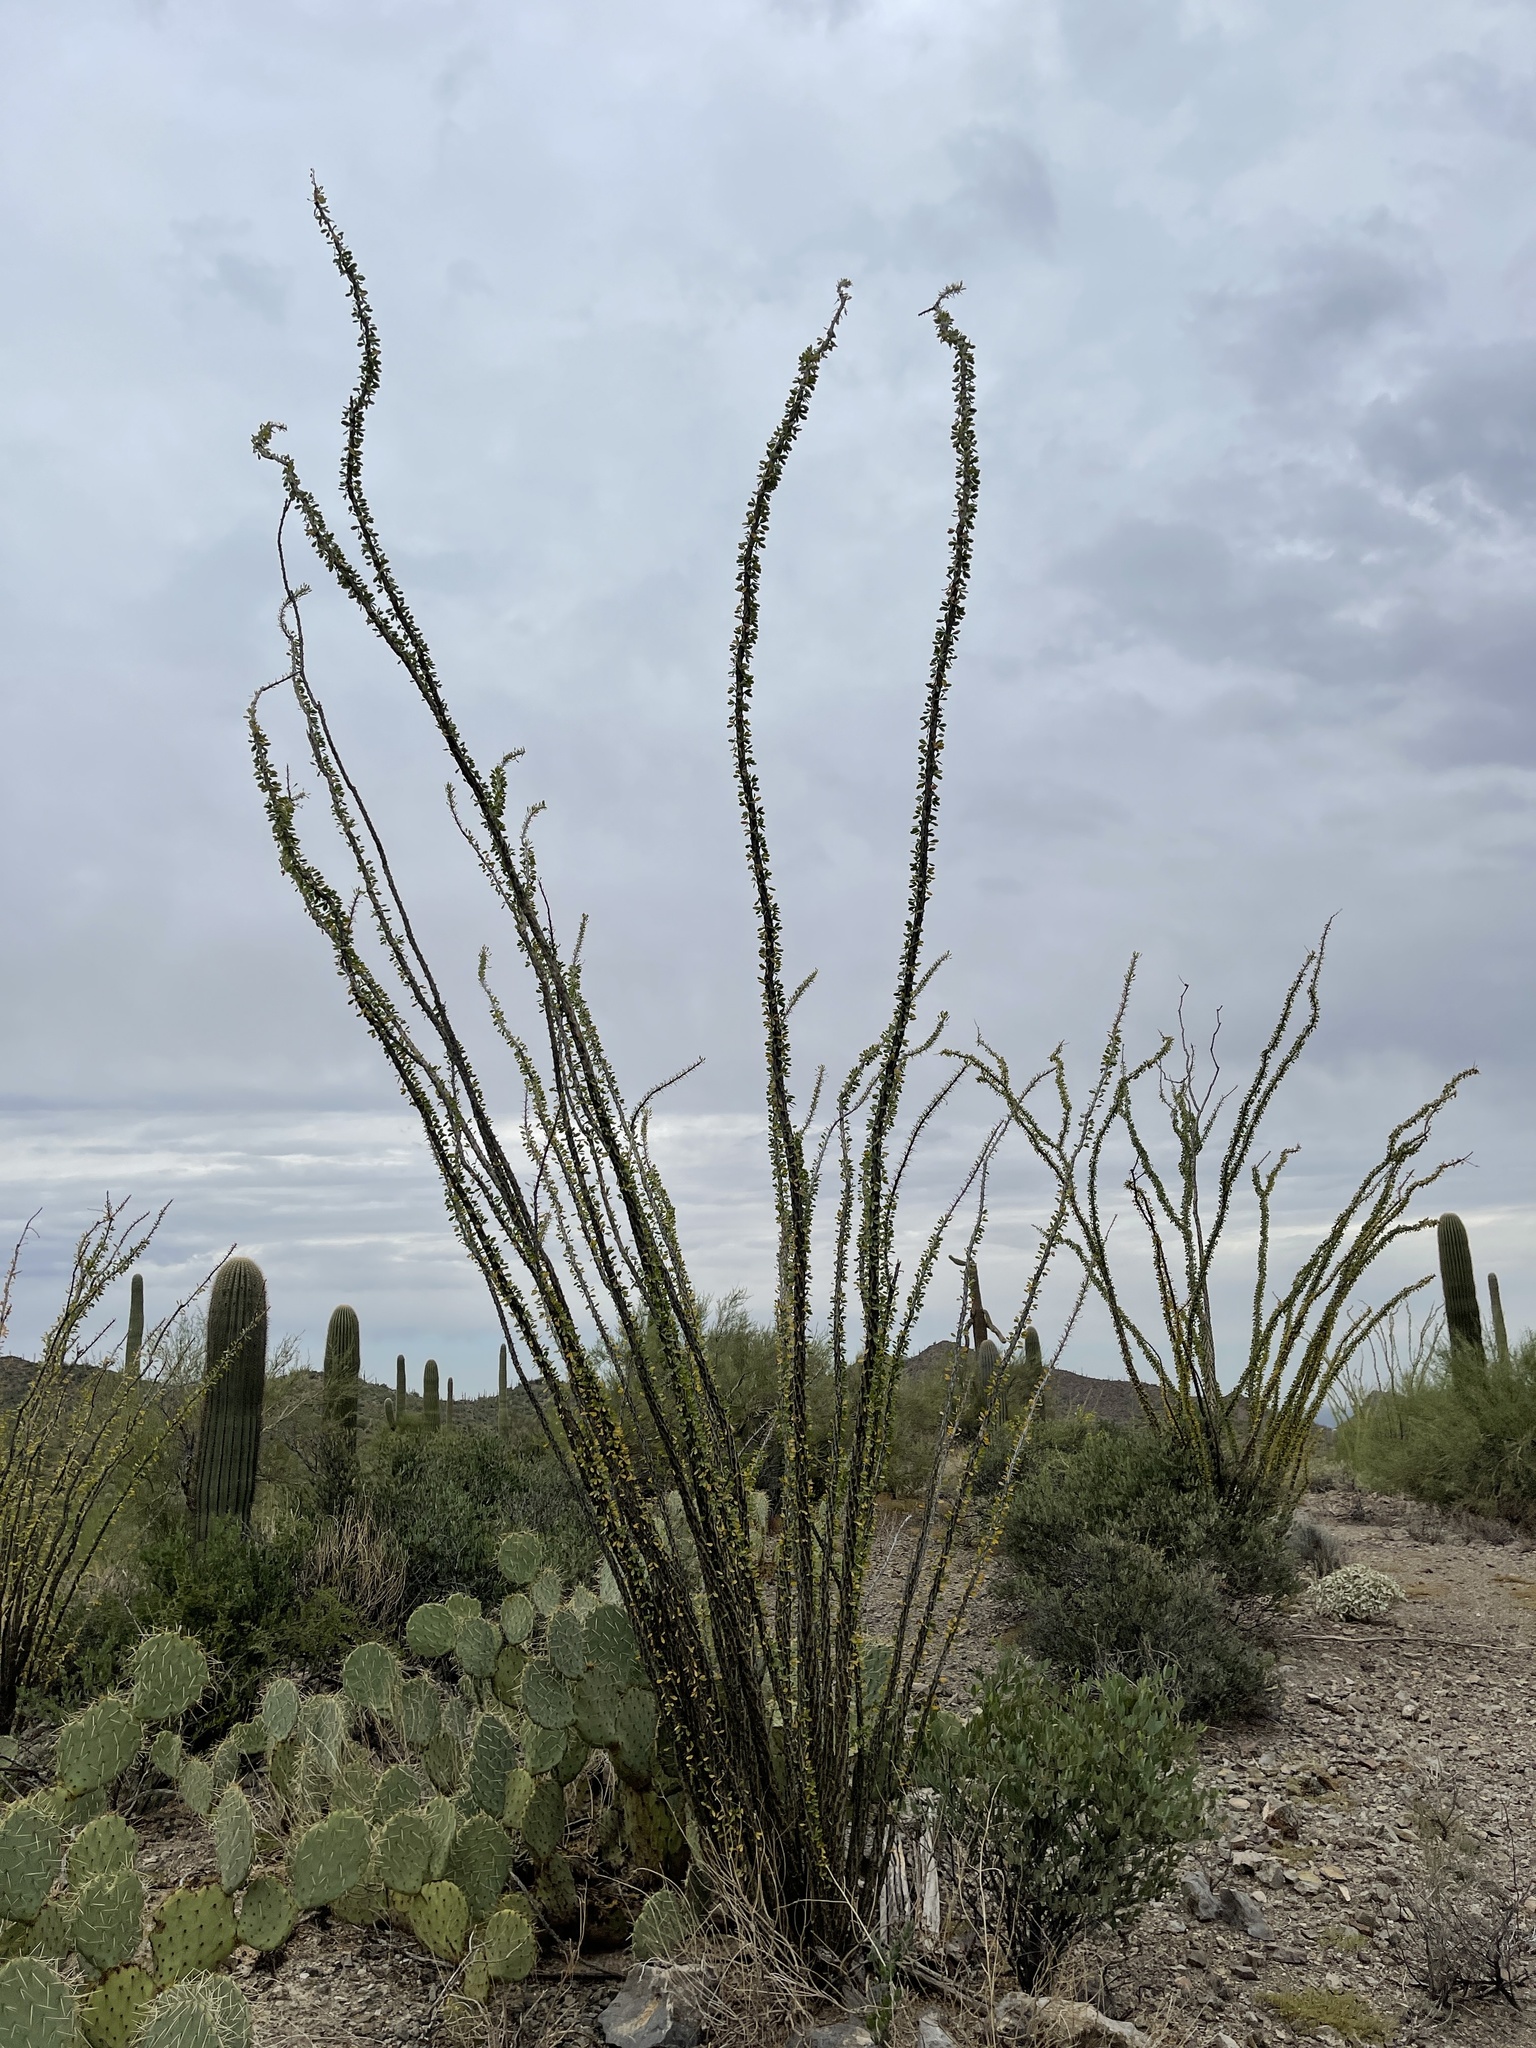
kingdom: Plantae
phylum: Tracheophyta
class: Magnoliopsida
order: Ericales
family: Fouquieriaceae
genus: Fouquieria
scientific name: Fouquieria splendens
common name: Vine-cactus
